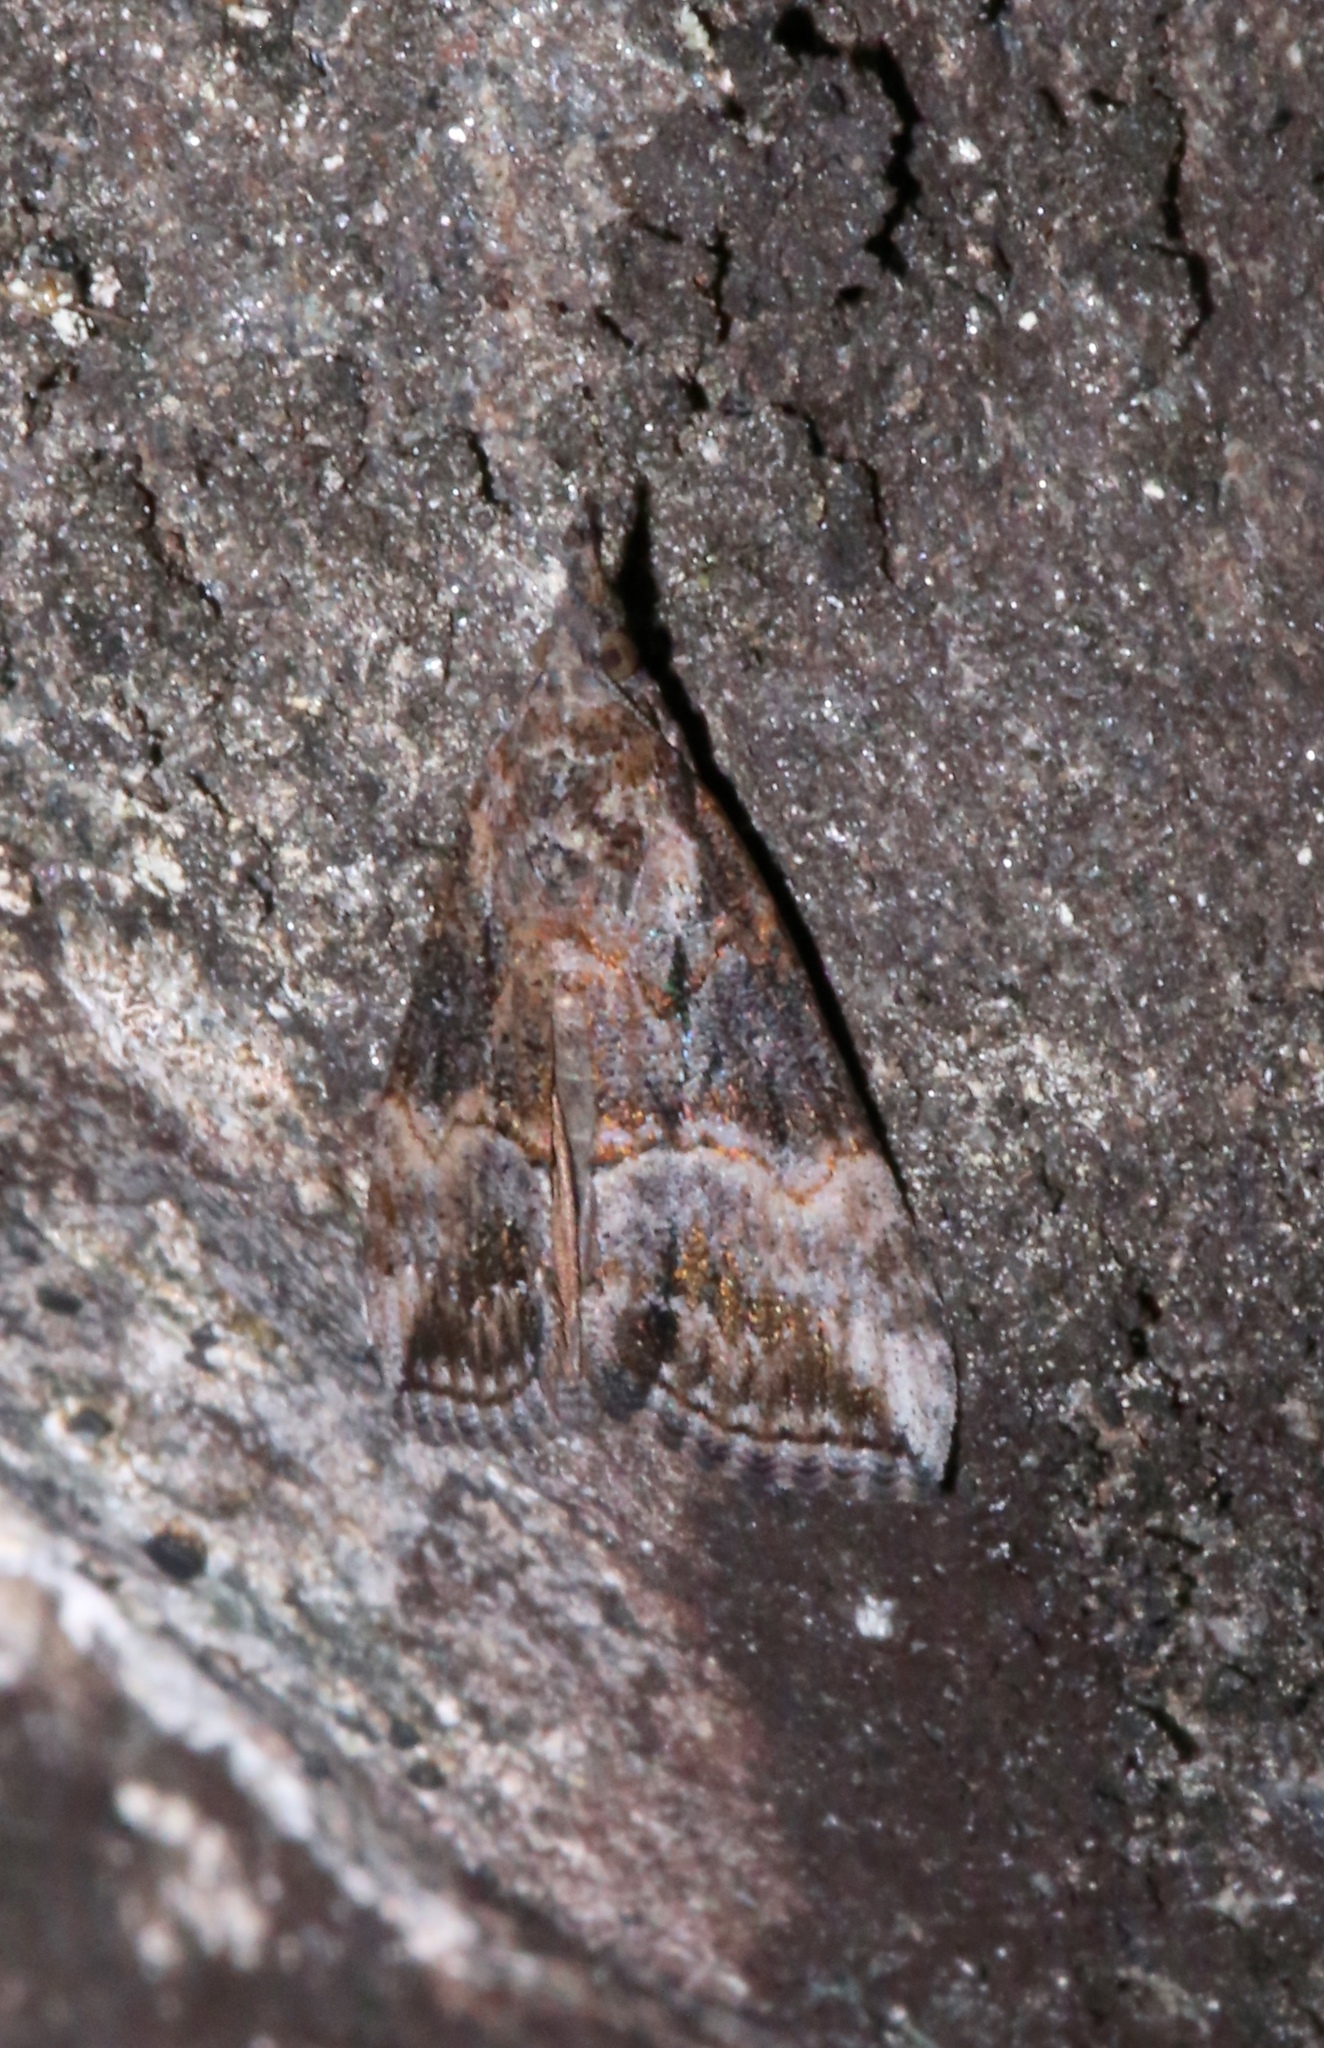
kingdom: Animalia
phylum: Arthropoda
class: Insecta
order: Lepidoptera
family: Erebidae
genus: Hypena
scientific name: Hypena scabra
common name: Green cloverworm
